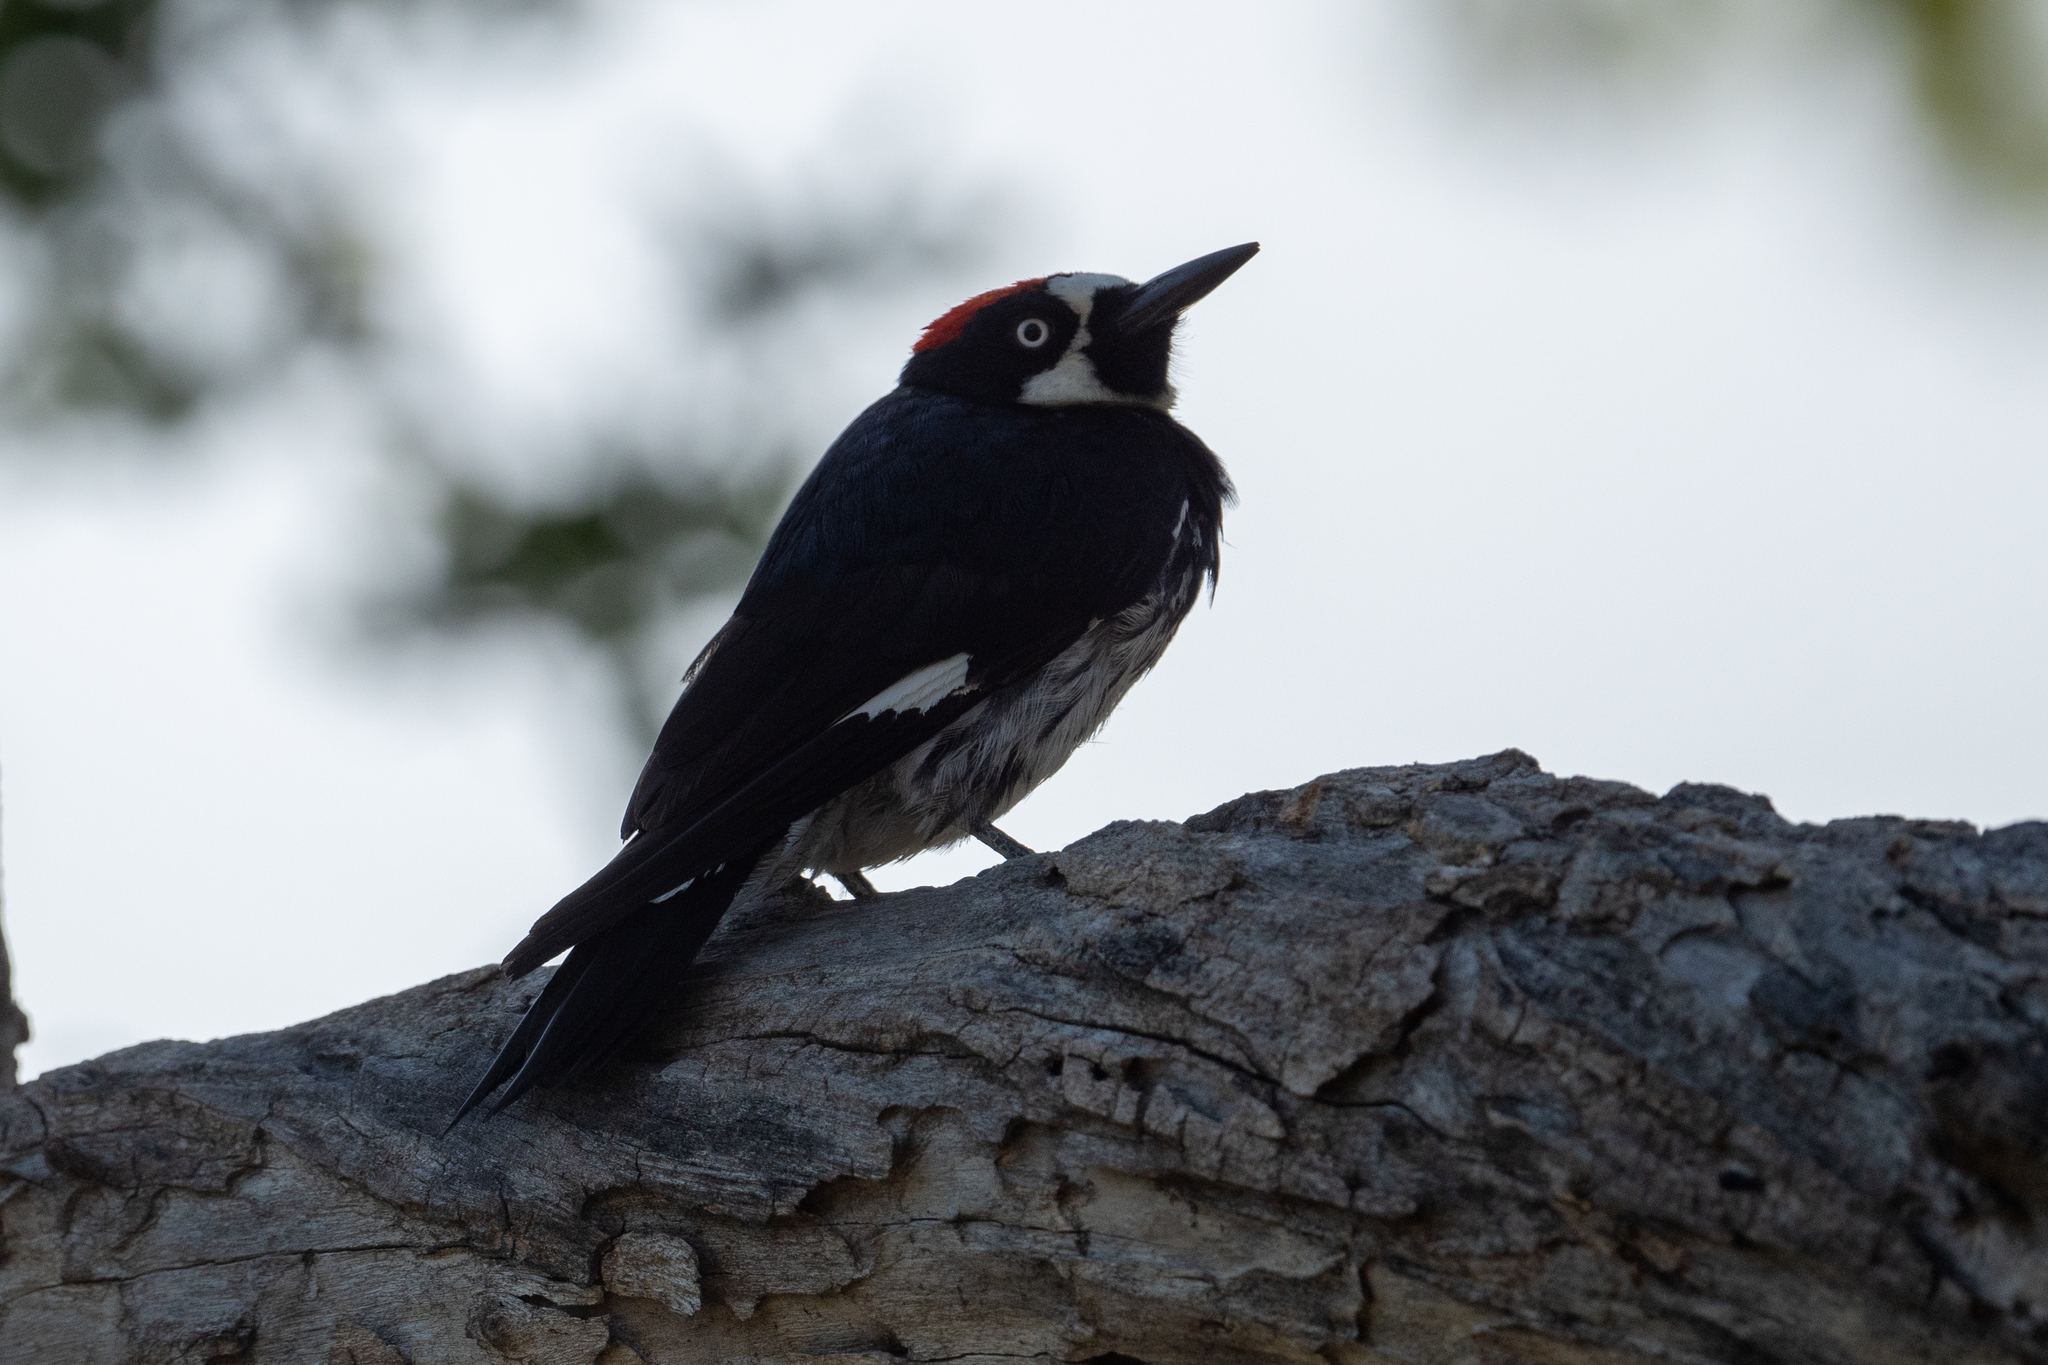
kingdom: Animalia
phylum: Chordata
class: Aves
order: Piciformes
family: Picidae
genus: Melanerpes
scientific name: Melanerpes formicivorus
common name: Acorn woodpecker
